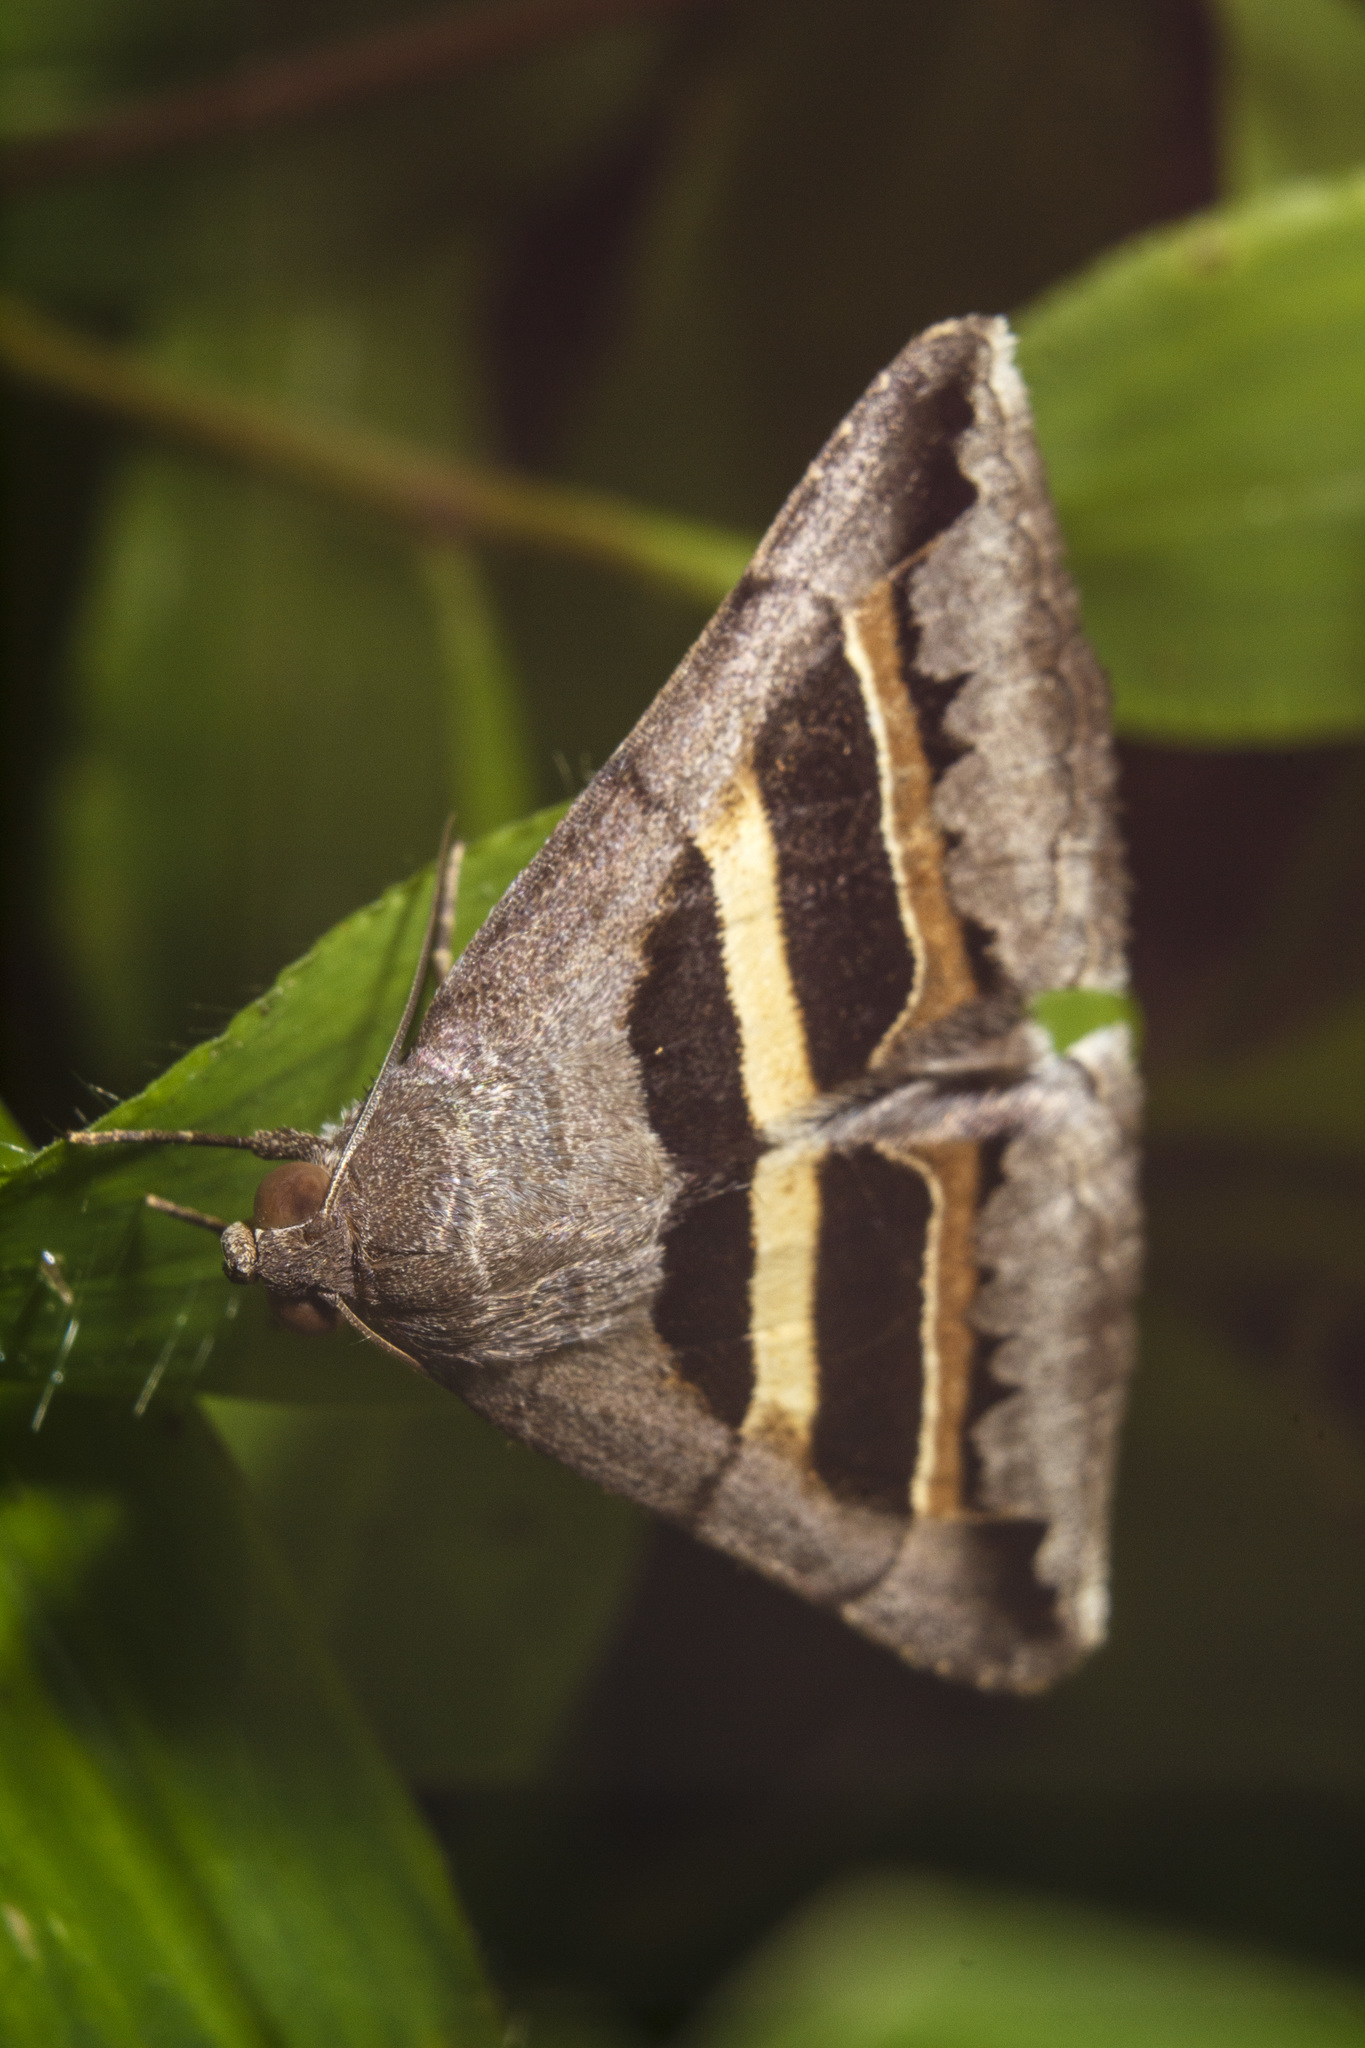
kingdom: Animalia
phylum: Arthropoda
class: Insecta
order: Lepidoptera
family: Erebidae
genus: Grammodes
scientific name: Grammodes geometrica
